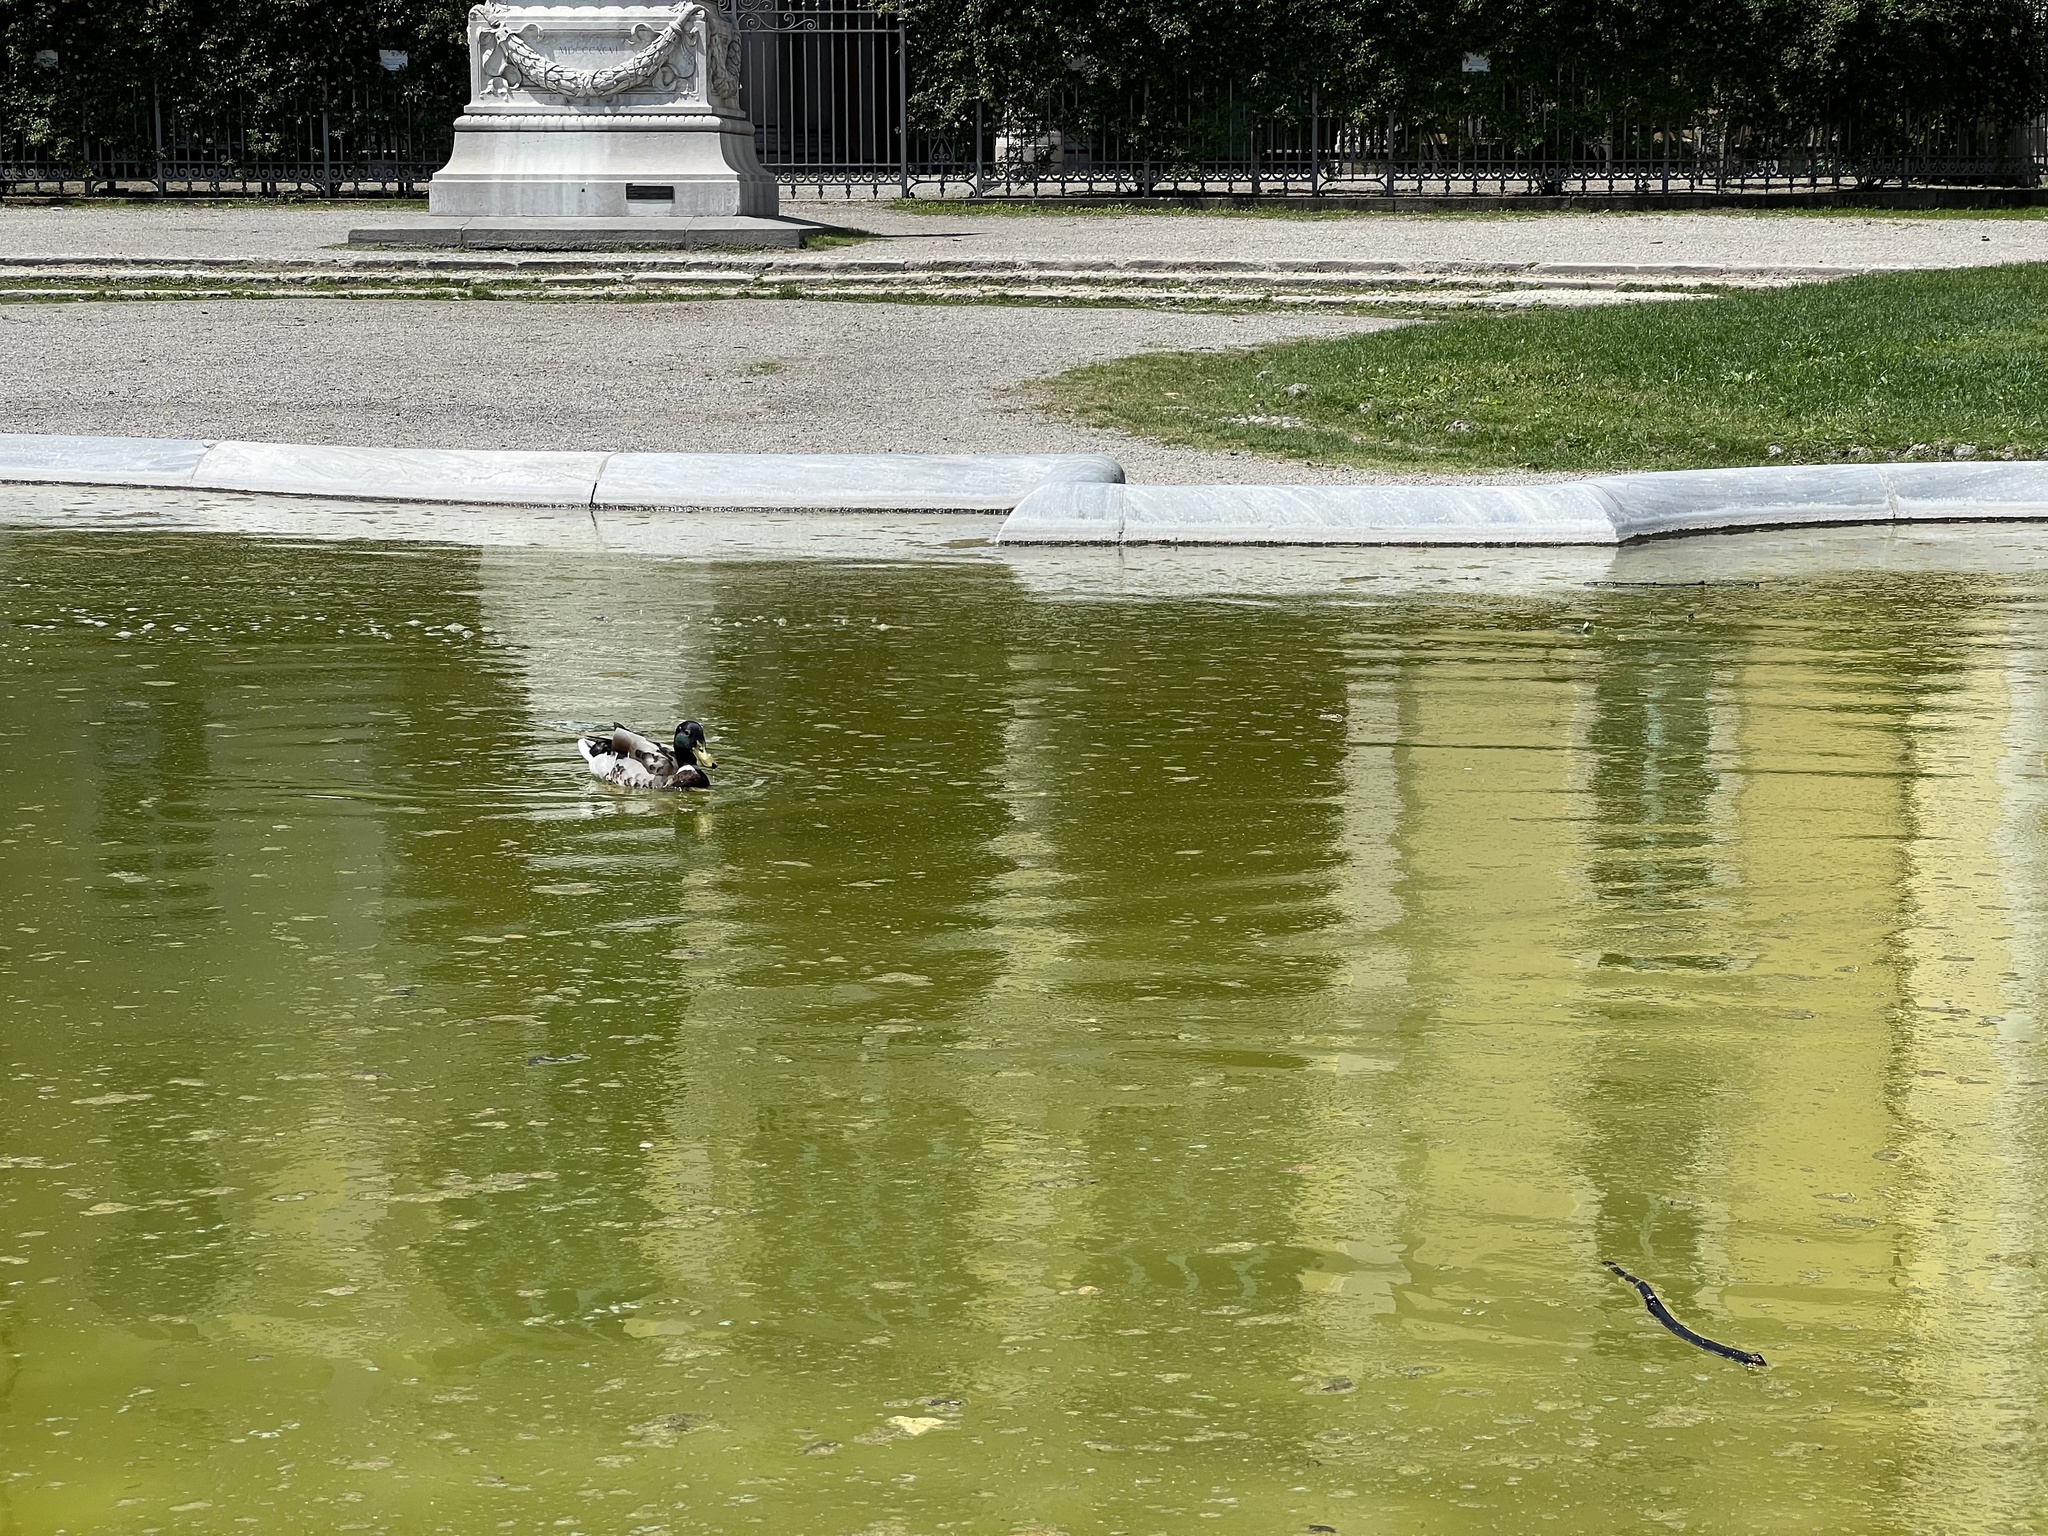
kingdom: Animalia
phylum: Chordata
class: Aves
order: Anseriformes
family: Anatidae
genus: Anas
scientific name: Anas platyrhynchos
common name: Mallard
